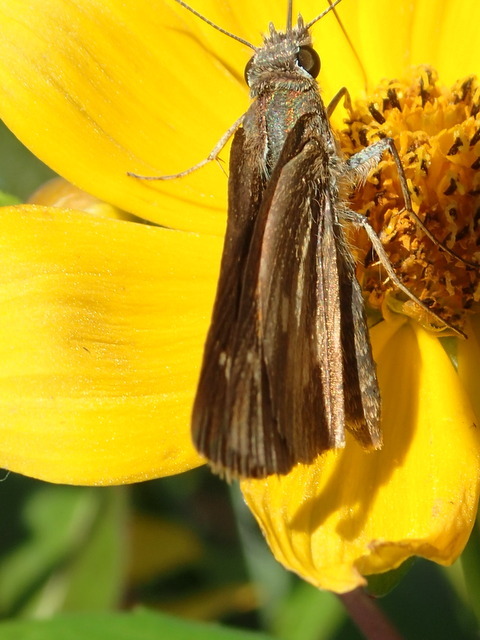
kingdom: Animalia
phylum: Arthropoda
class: Insecta
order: Lepidoptera
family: Hesperiidae
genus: Poanes
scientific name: Poanes viator
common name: Broad-winged skipper
